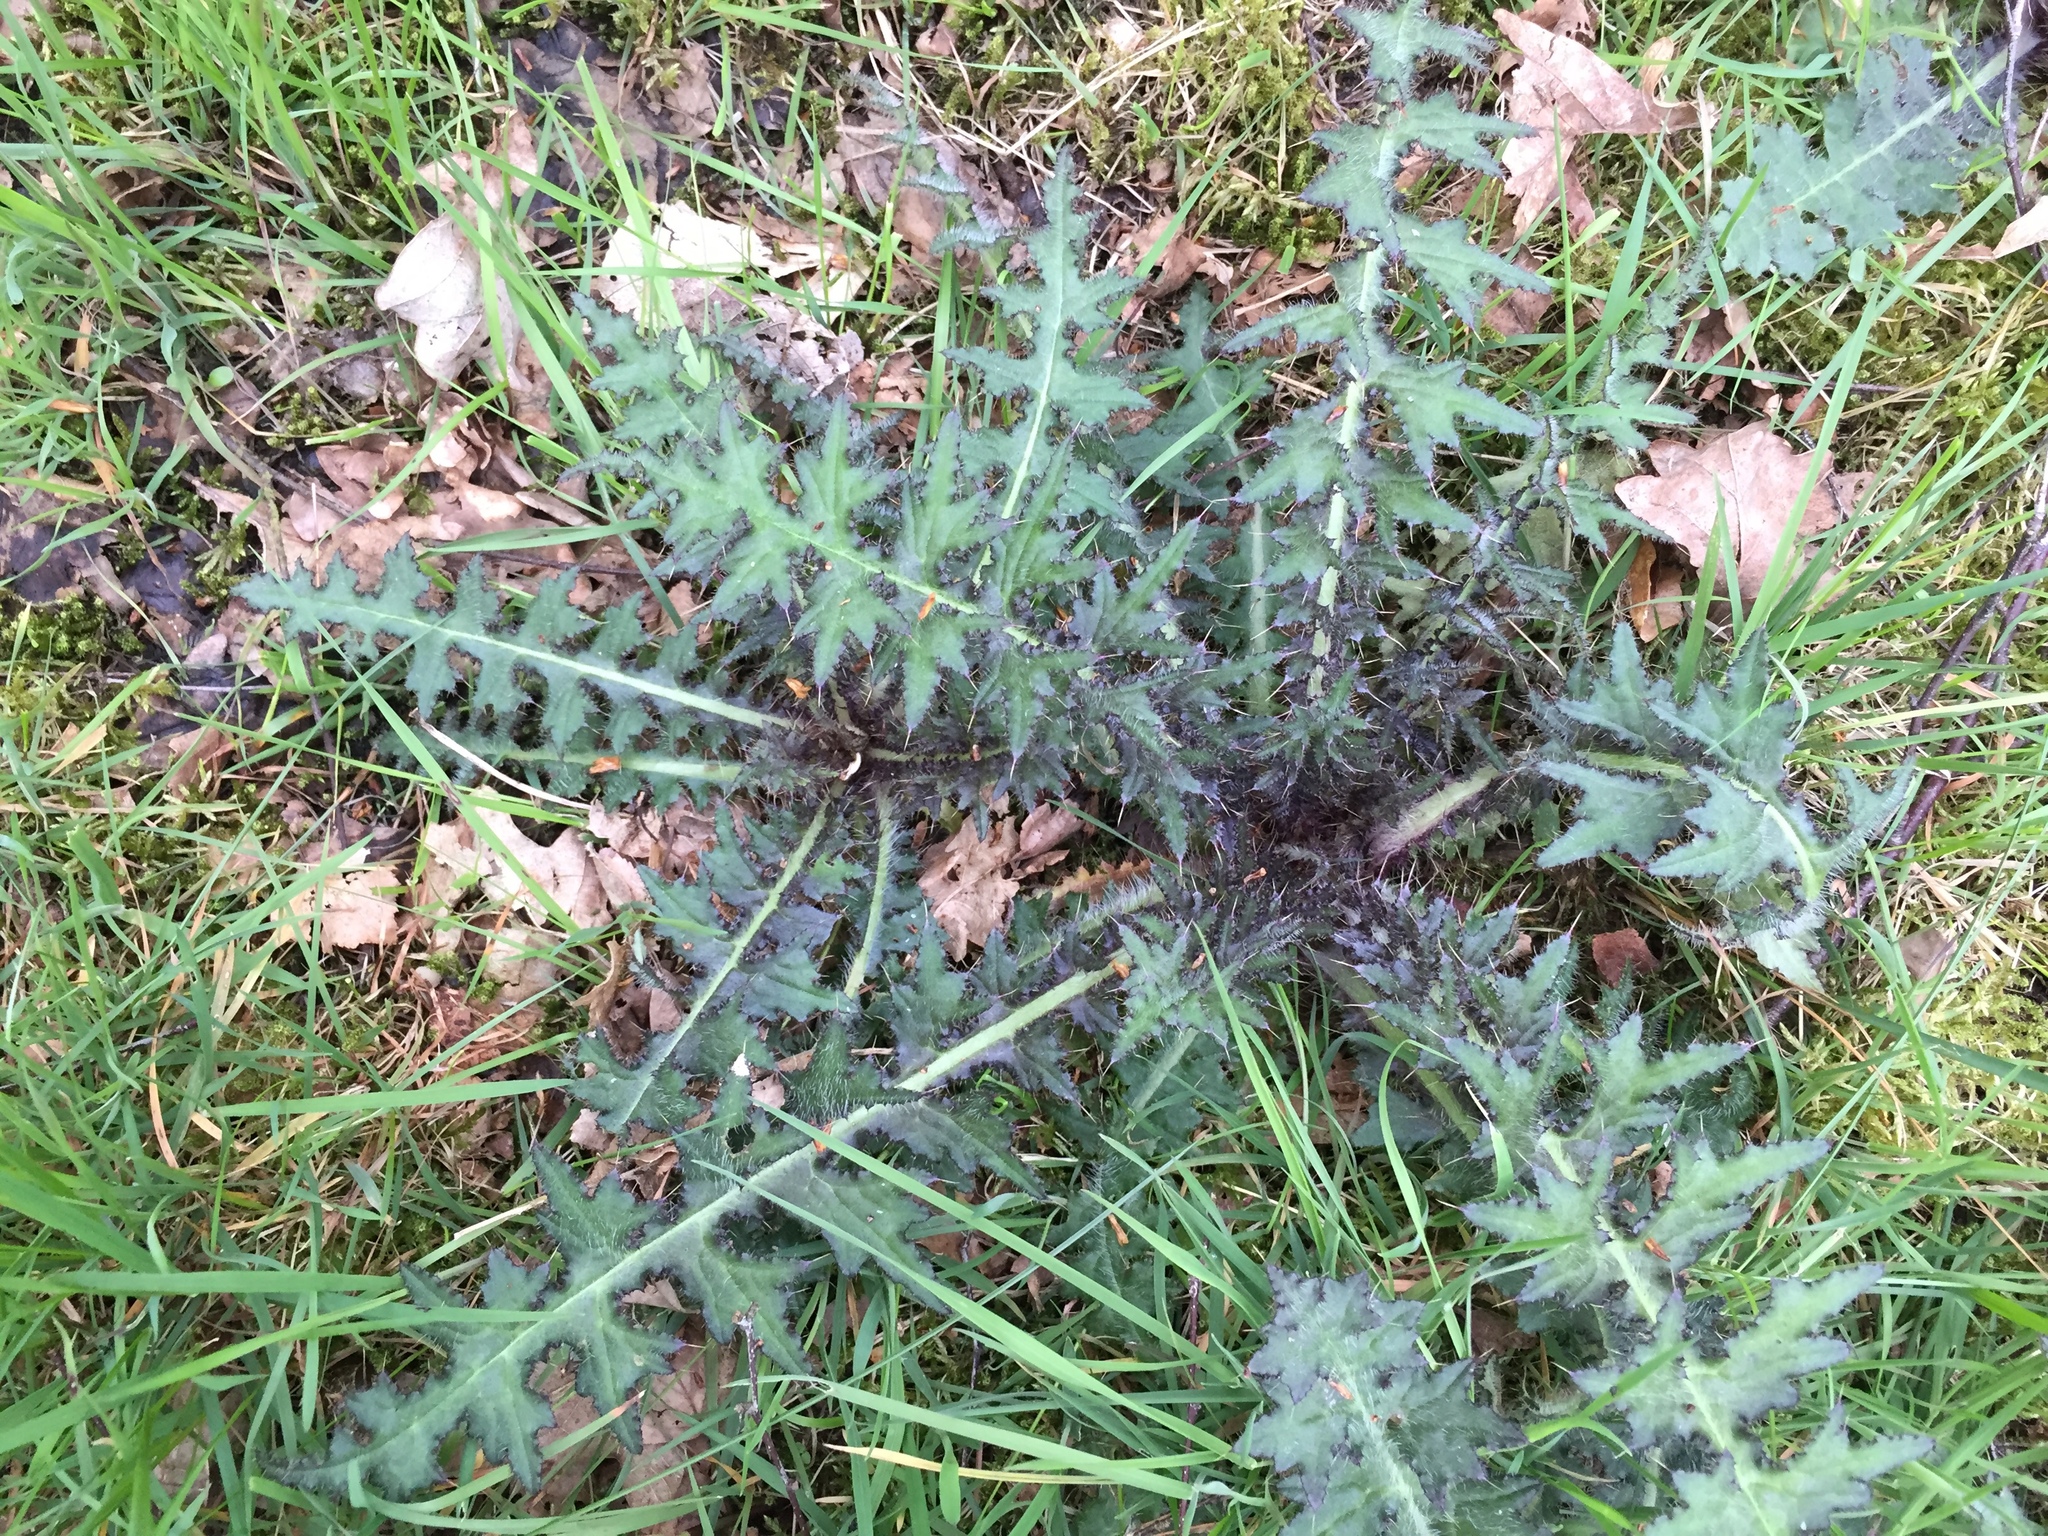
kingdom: Plantae
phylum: Tracheophyta
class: Magnoliopsida
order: Asterales
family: Asteraceae
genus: Cirsium
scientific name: Cirsium palustre
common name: Marsh thistle
